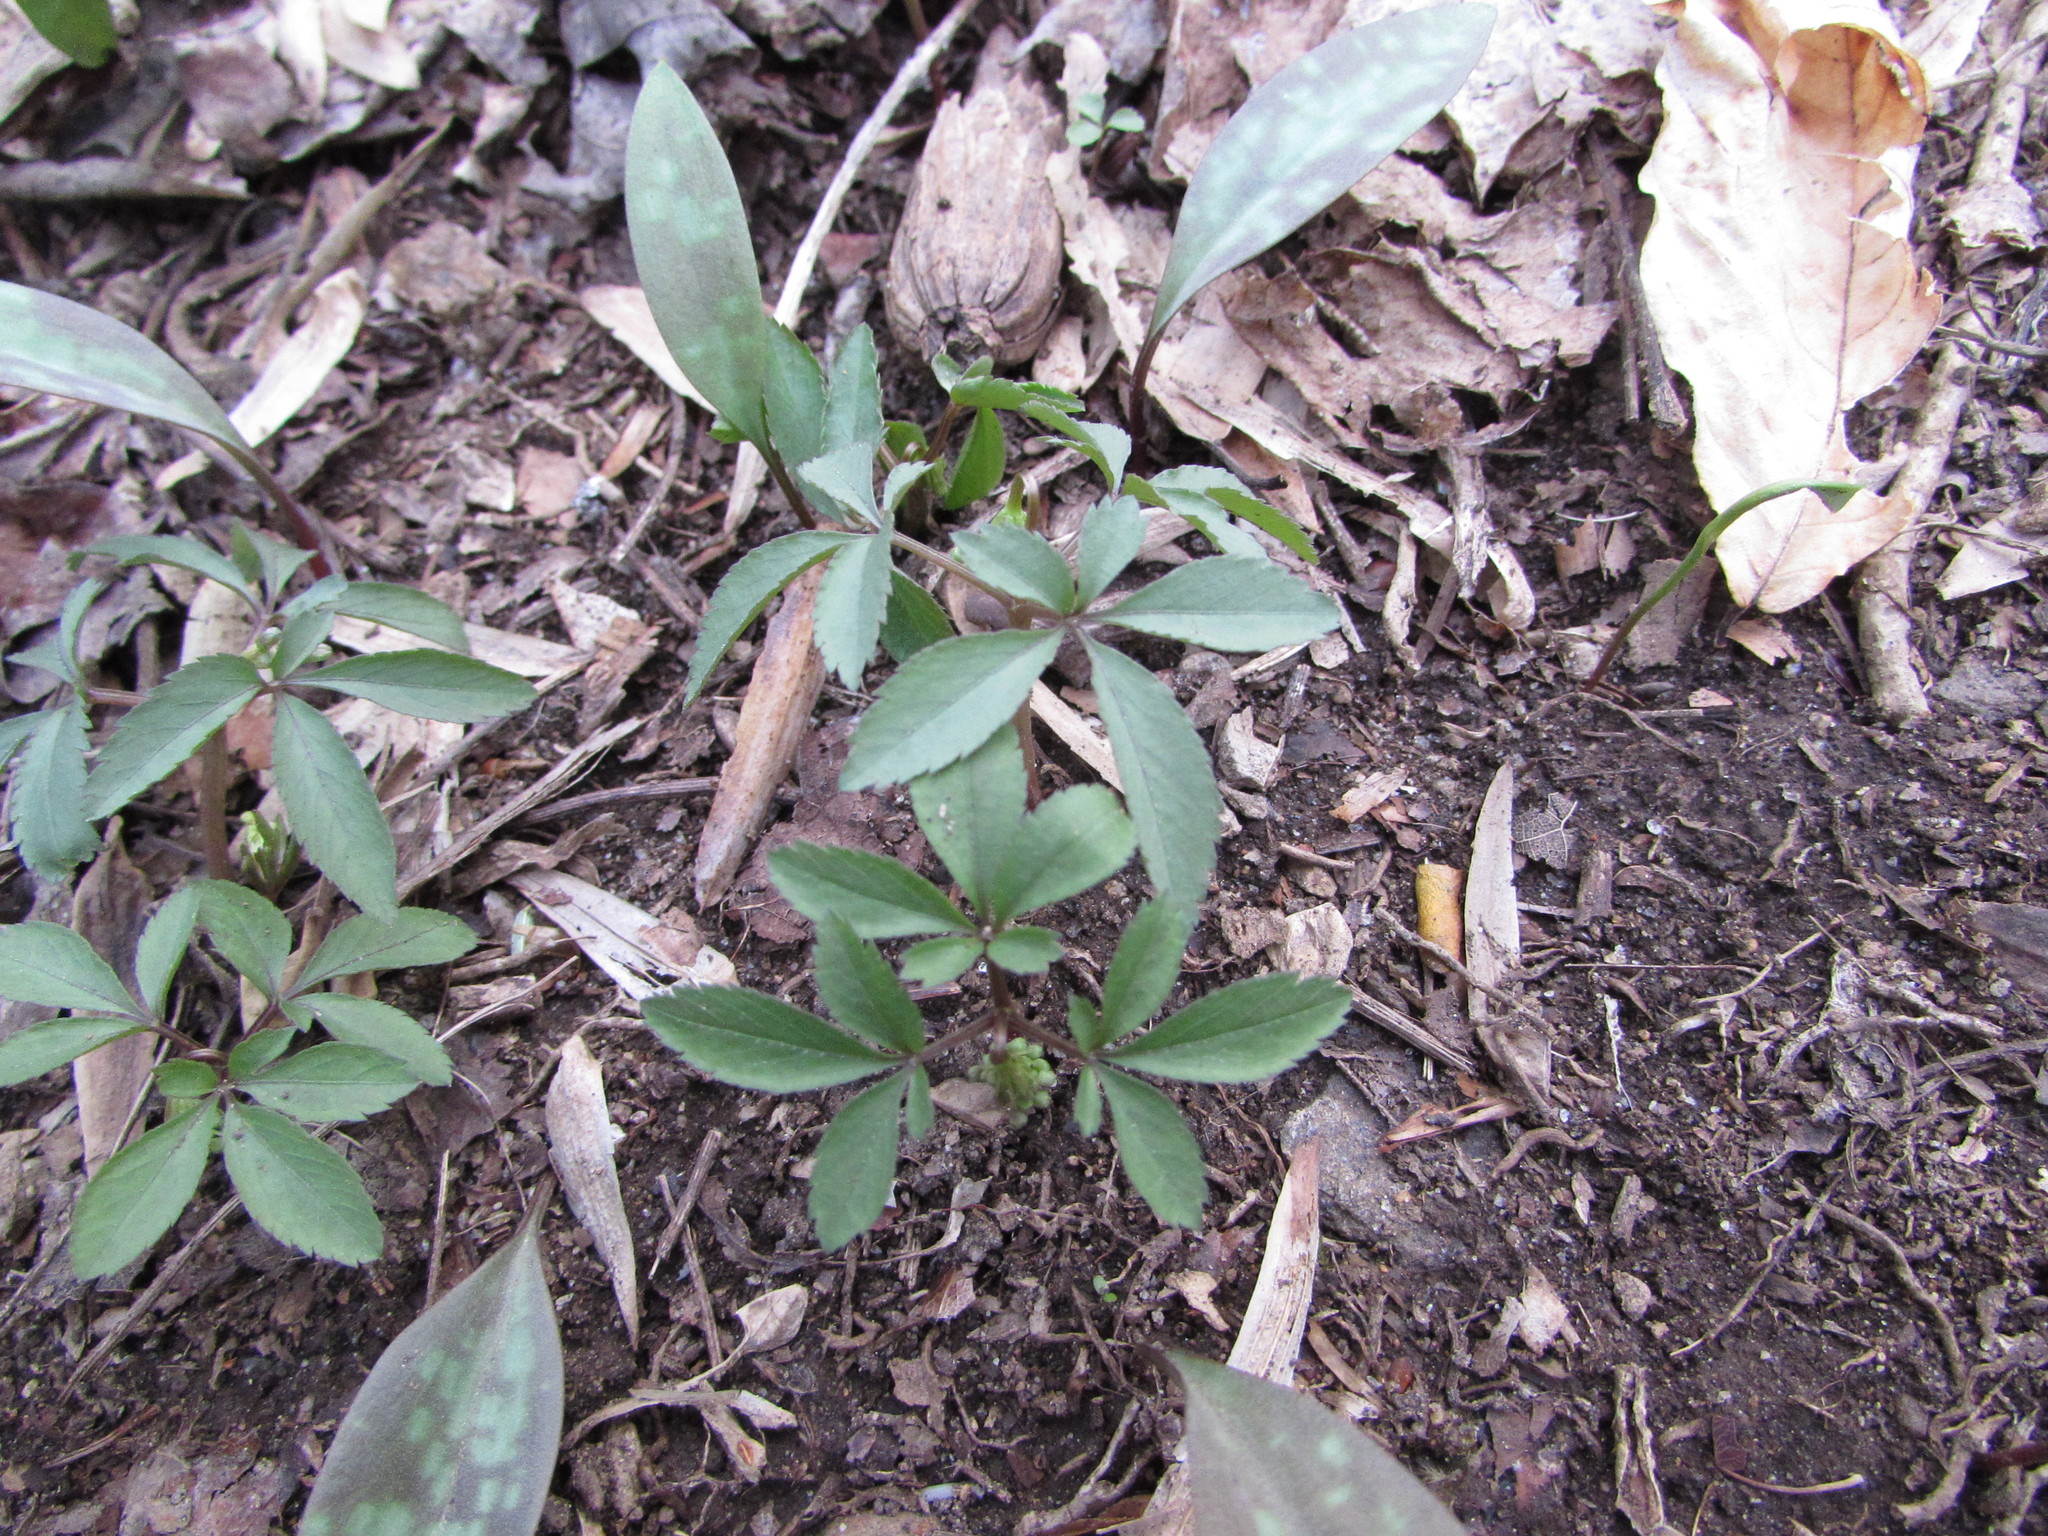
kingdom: Plantae
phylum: Tracheophyta
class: Magnoliopsida
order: Apiales
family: Araliaceae
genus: Panax
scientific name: Panax trifolius
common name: Dwarf ginseng
